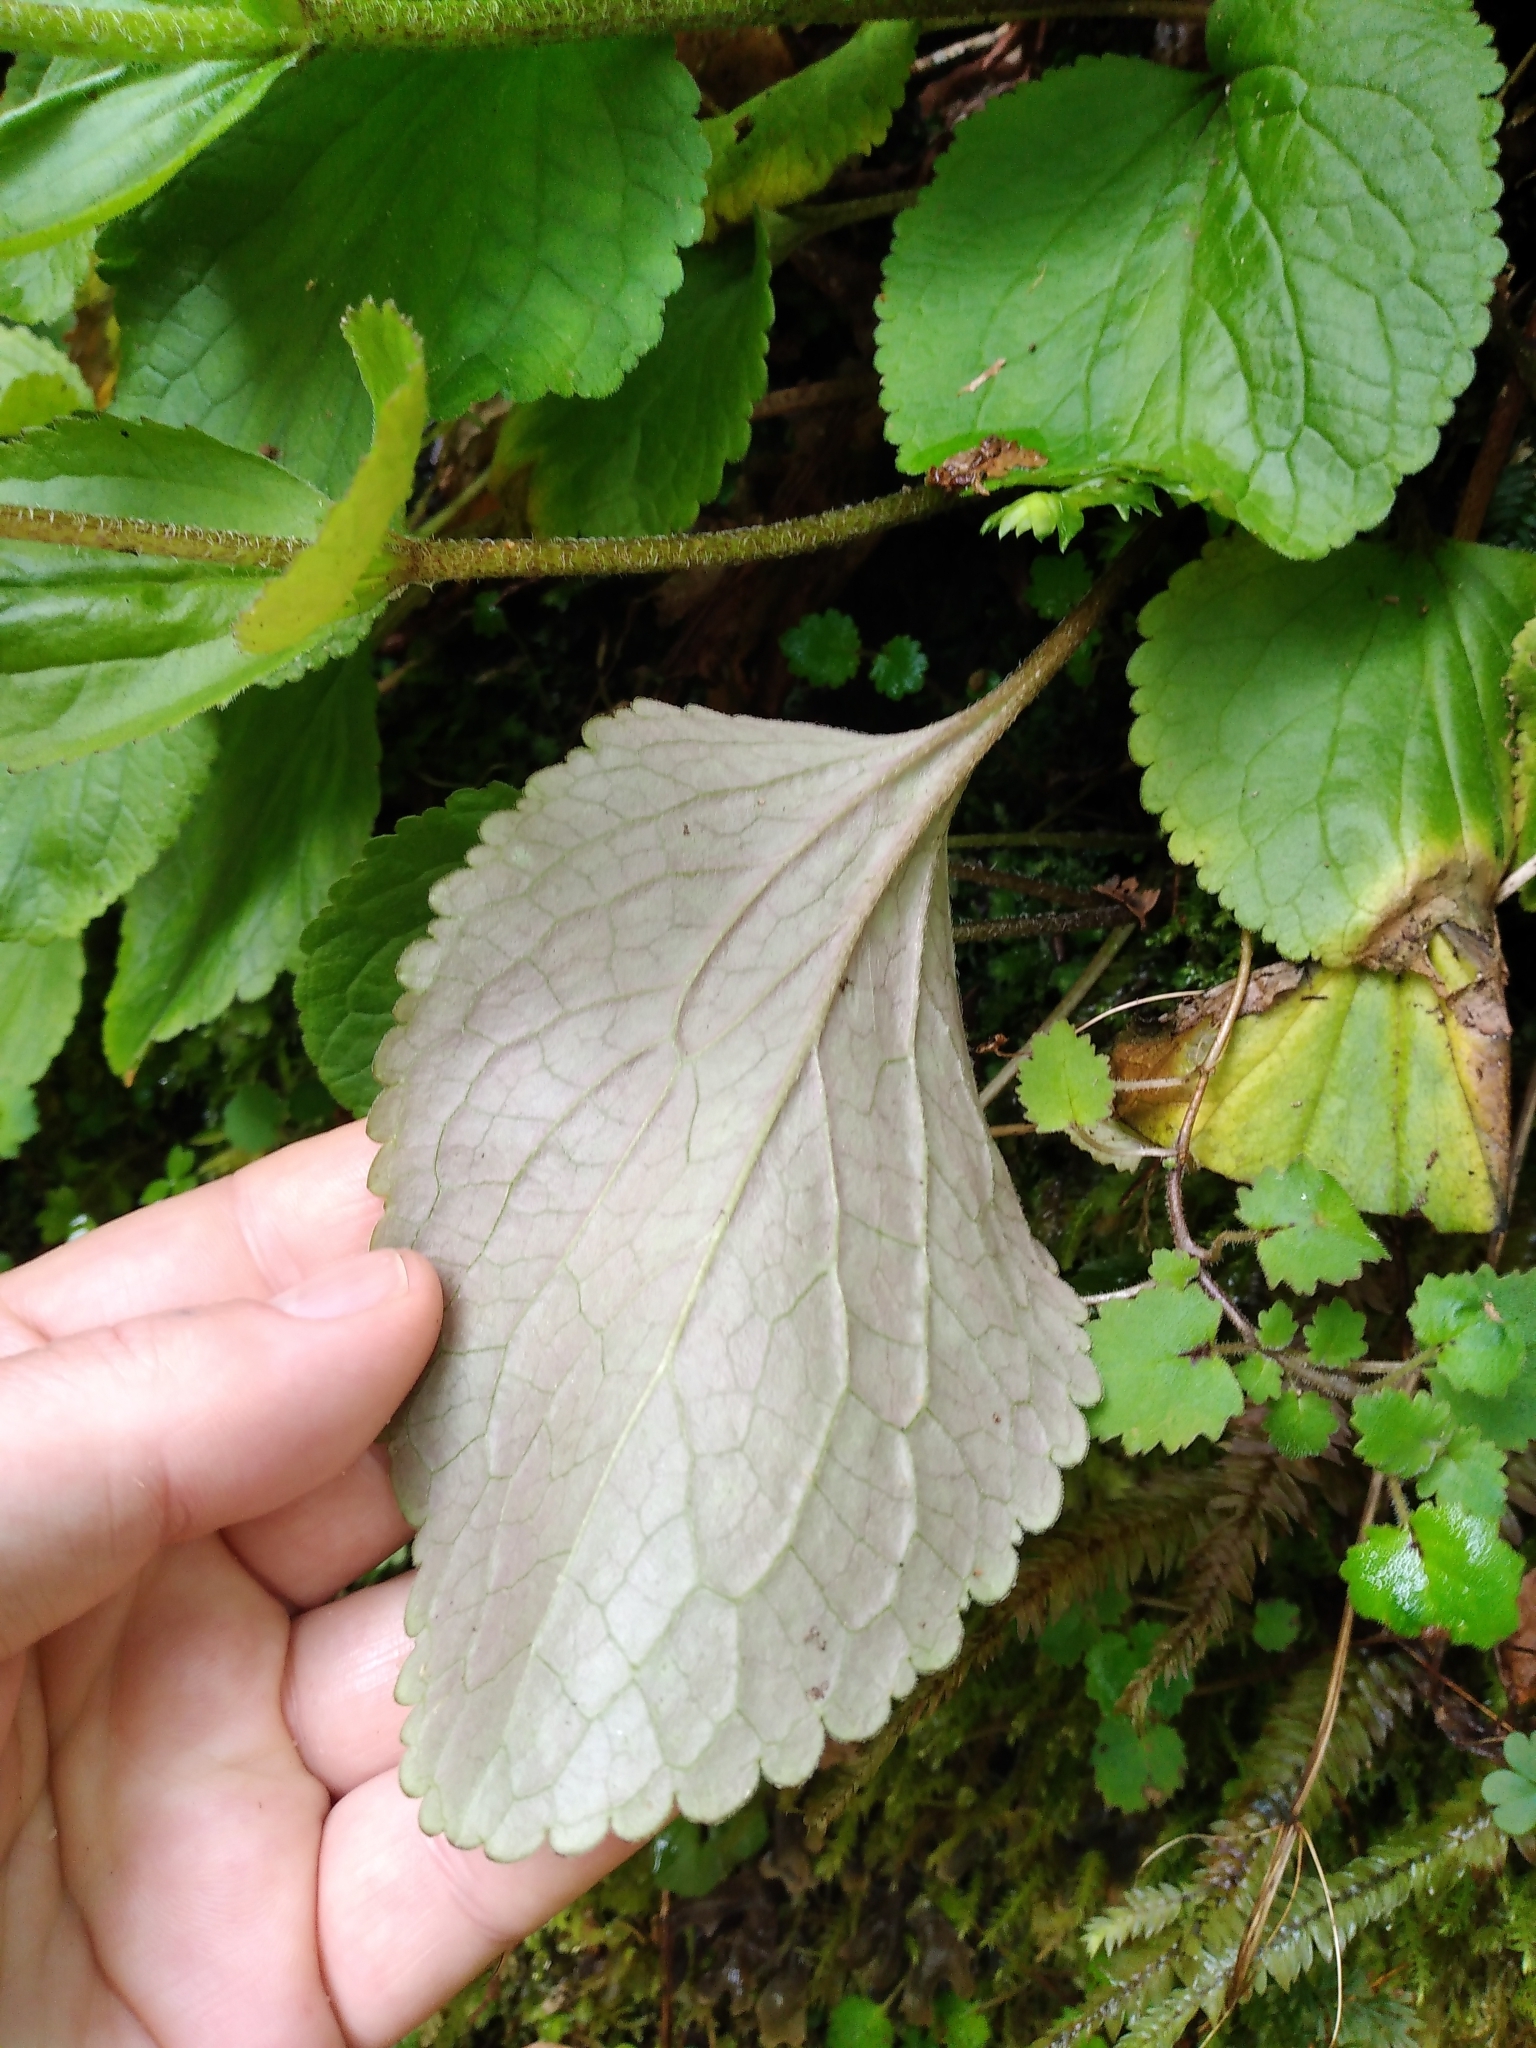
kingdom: Plantae
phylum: Tracheophyta
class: Magnoliopsida
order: Lamiales
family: Plantaginaceae
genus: Ourisia
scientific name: Ourisia macrophylla
